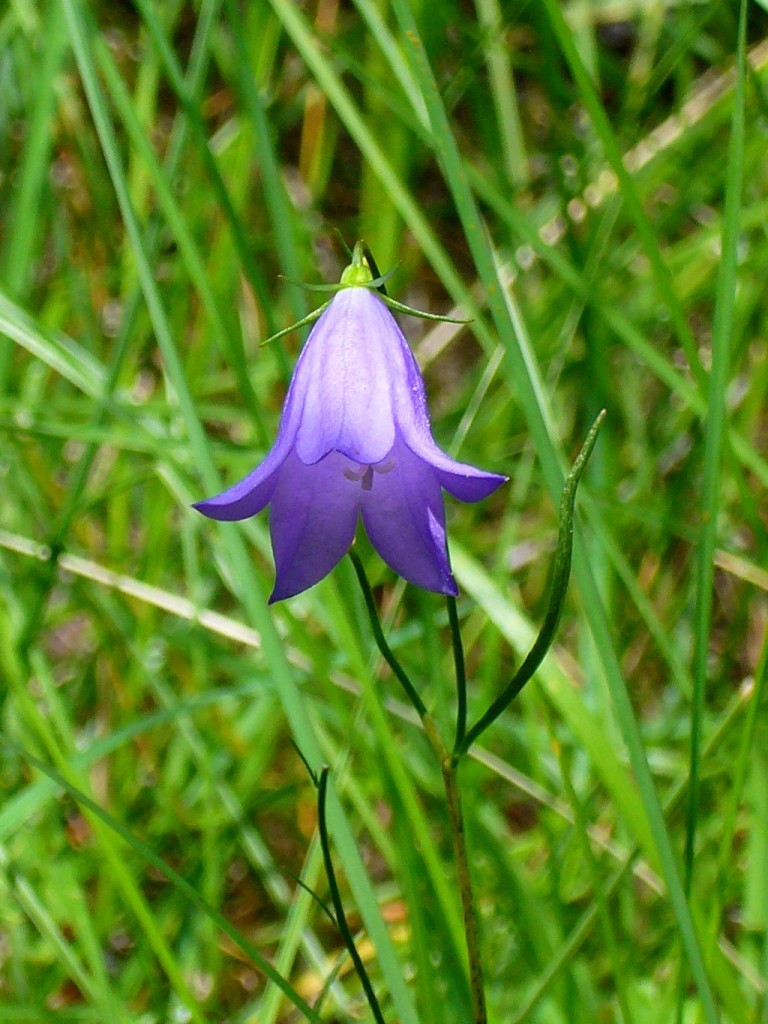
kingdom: Plantae
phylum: Tracheophyta
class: Magnoliopsida
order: Asterales
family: Campanulaceae
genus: Campanula
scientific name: Campanula petiolata
